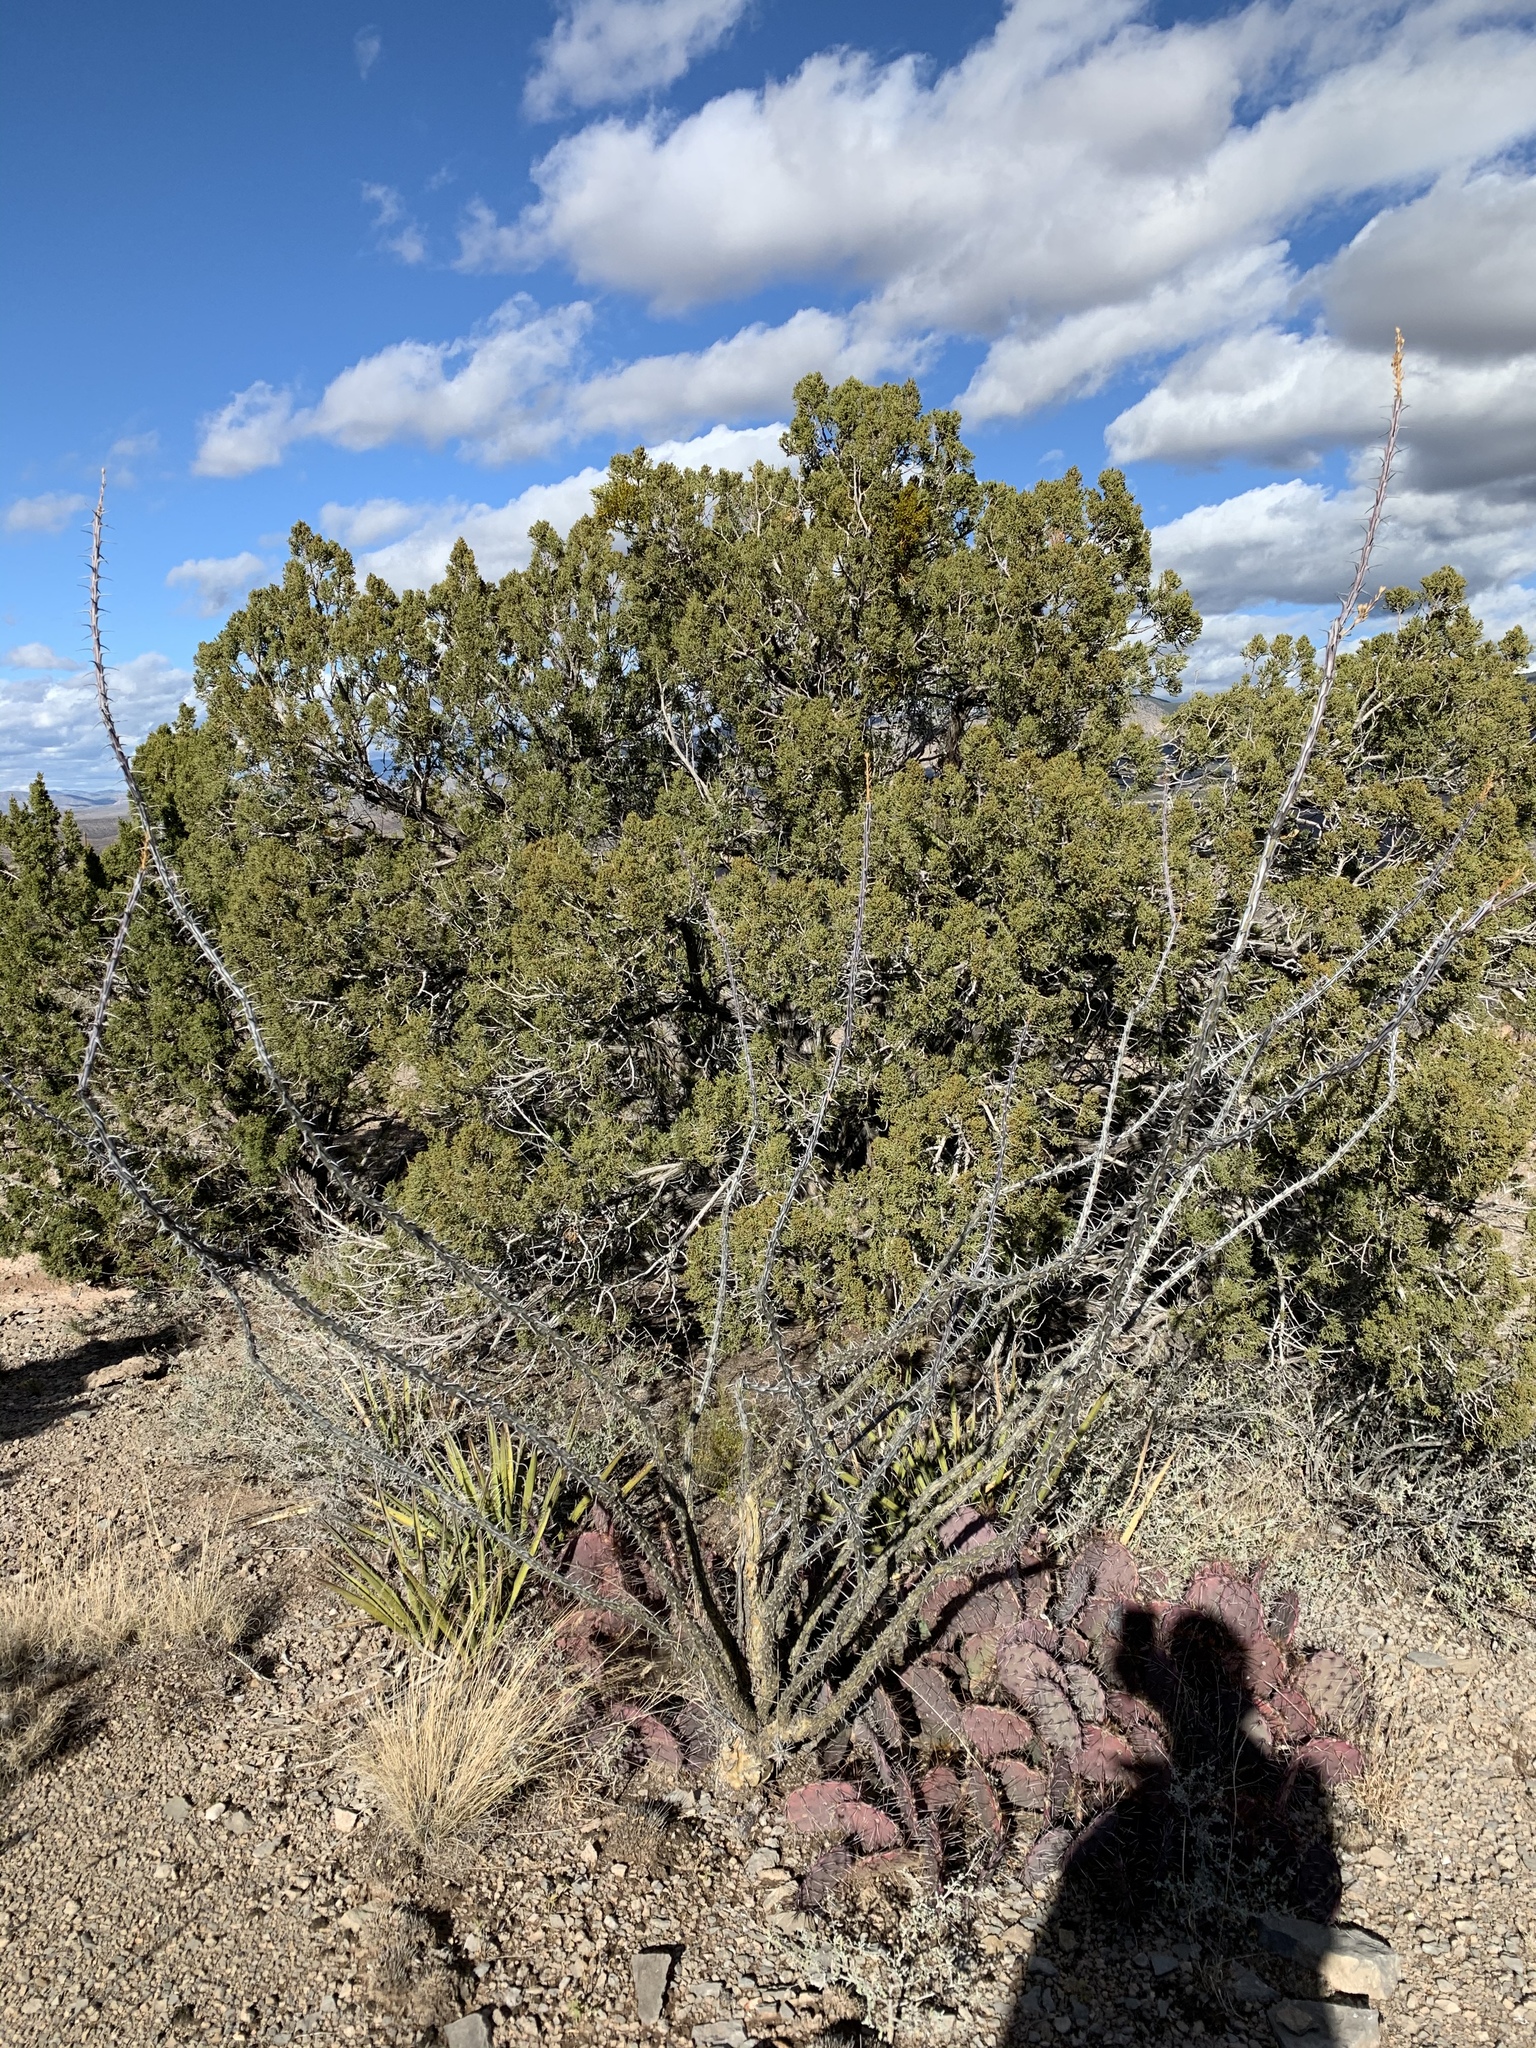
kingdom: Plantae
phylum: Tracheophyta
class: Magnoliopsida
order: Ericales
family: Fouquieriaceae
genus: Fouquieria
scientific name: Fouquieria splendens
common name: Vine-cactus
